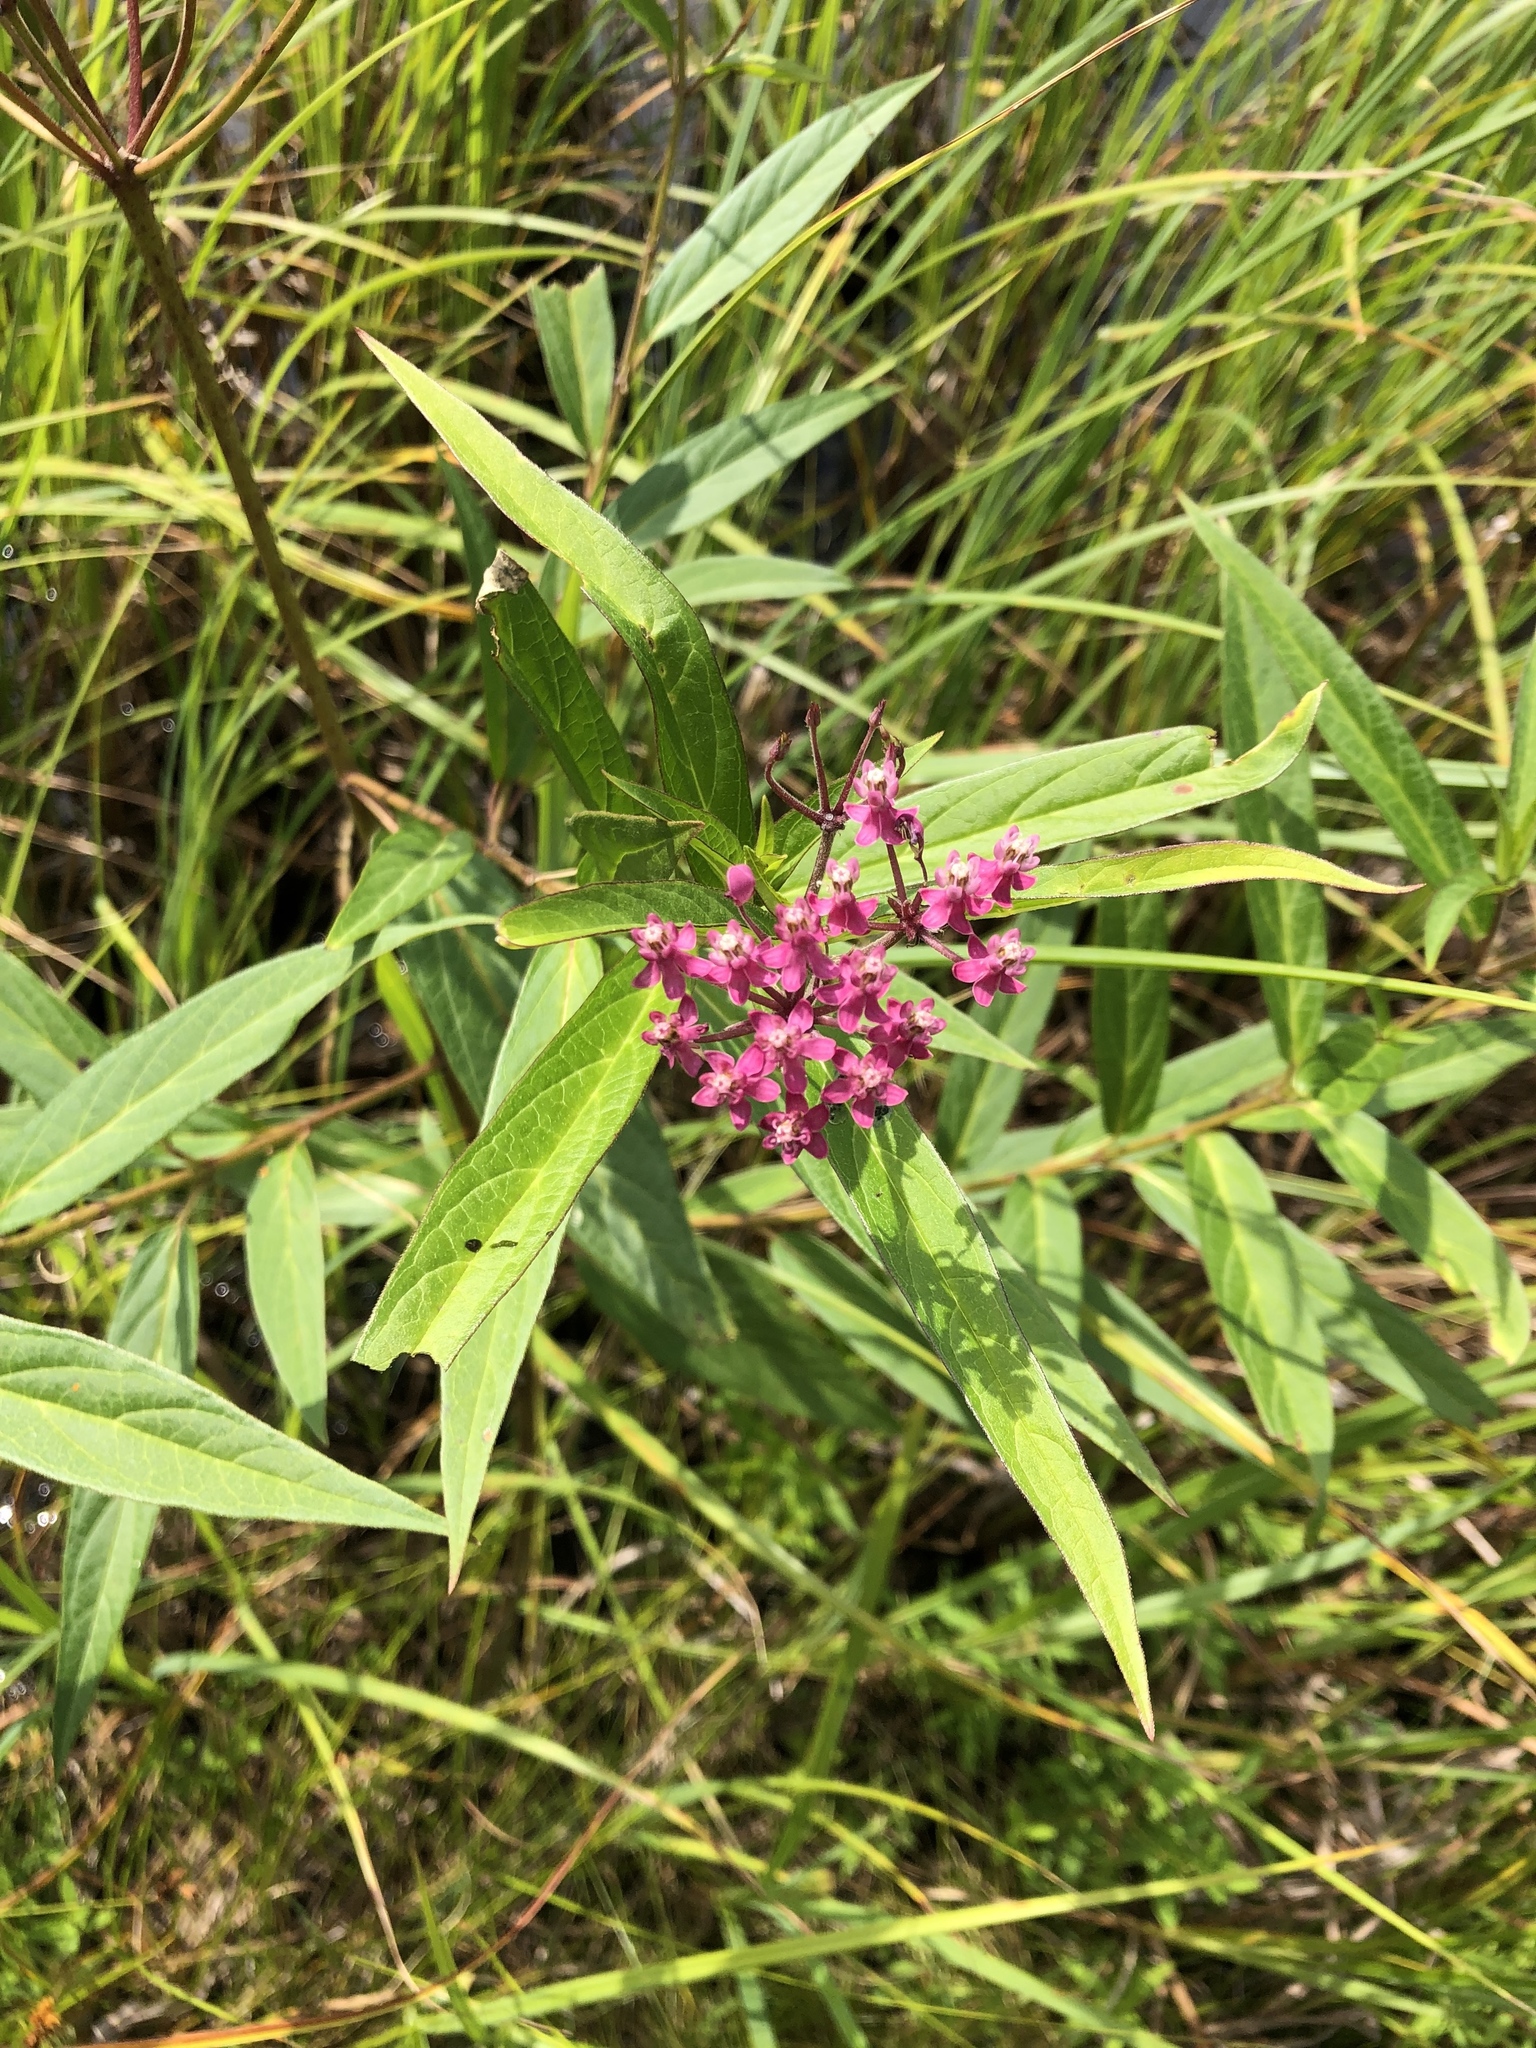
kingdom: Plantae
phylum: Tracheophyta
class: Magnoliopsida
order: Gentianales
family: Apocynaceae
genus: Asclepias
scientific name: Asclepias incarnata
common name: Swamp milkweed
